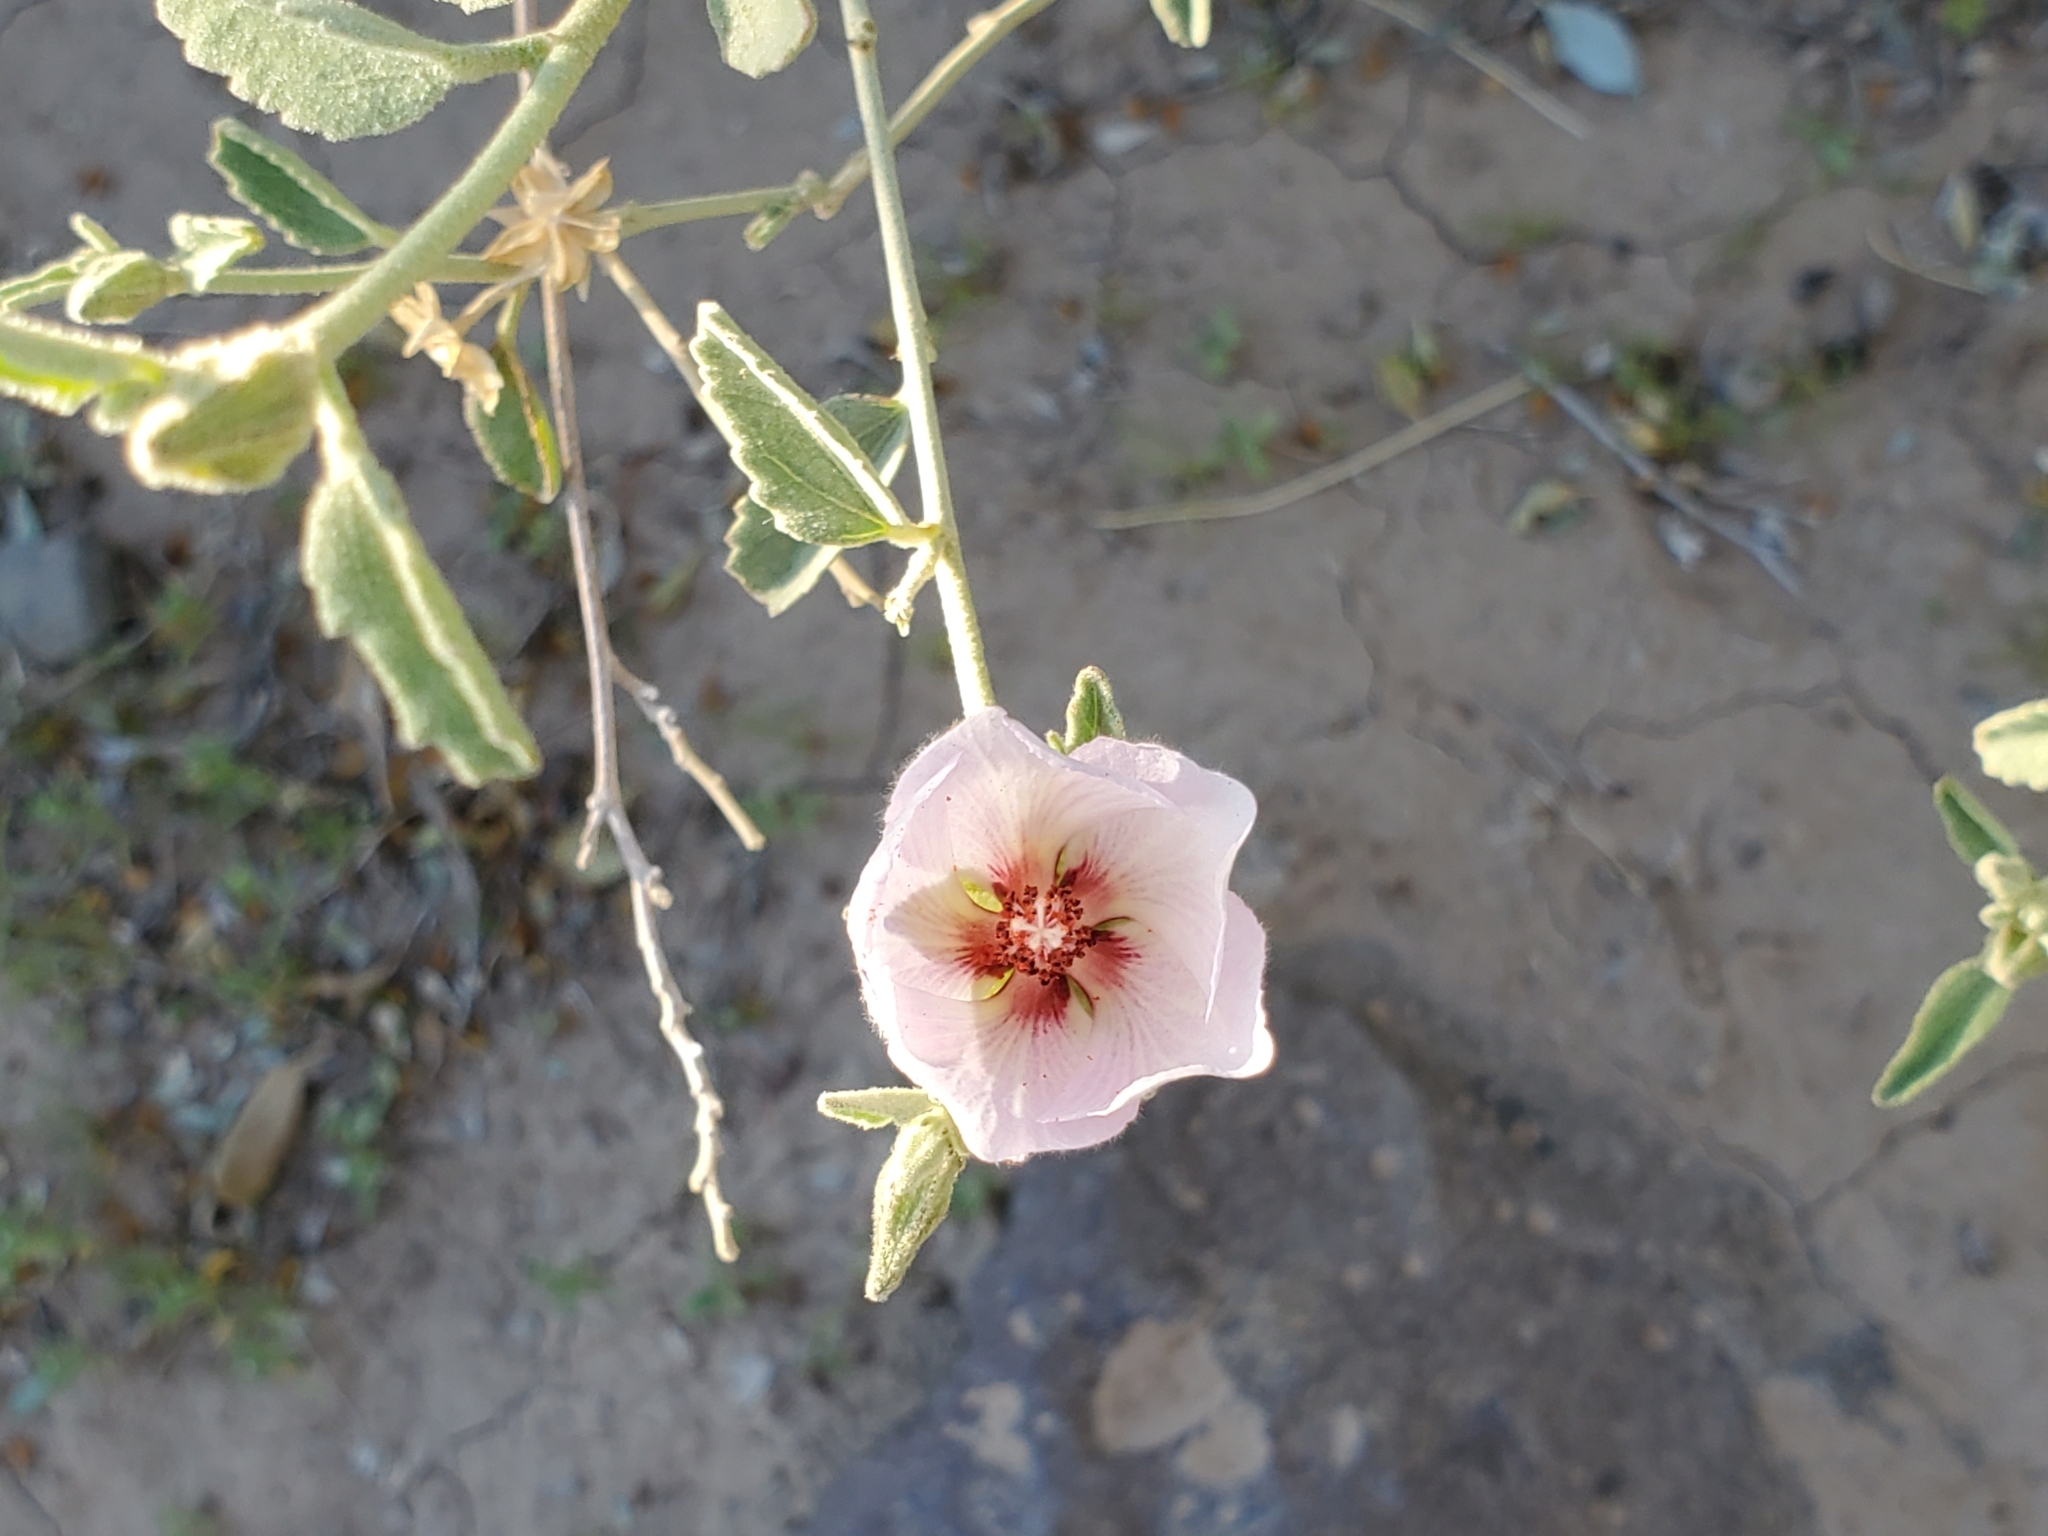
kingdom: Plantae
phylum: Tracheophyta
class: Magnoliopsida
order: Malvales
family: Malvaceae
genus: Hibiscus
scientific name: Hibiscus denudatus
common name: Paleface
